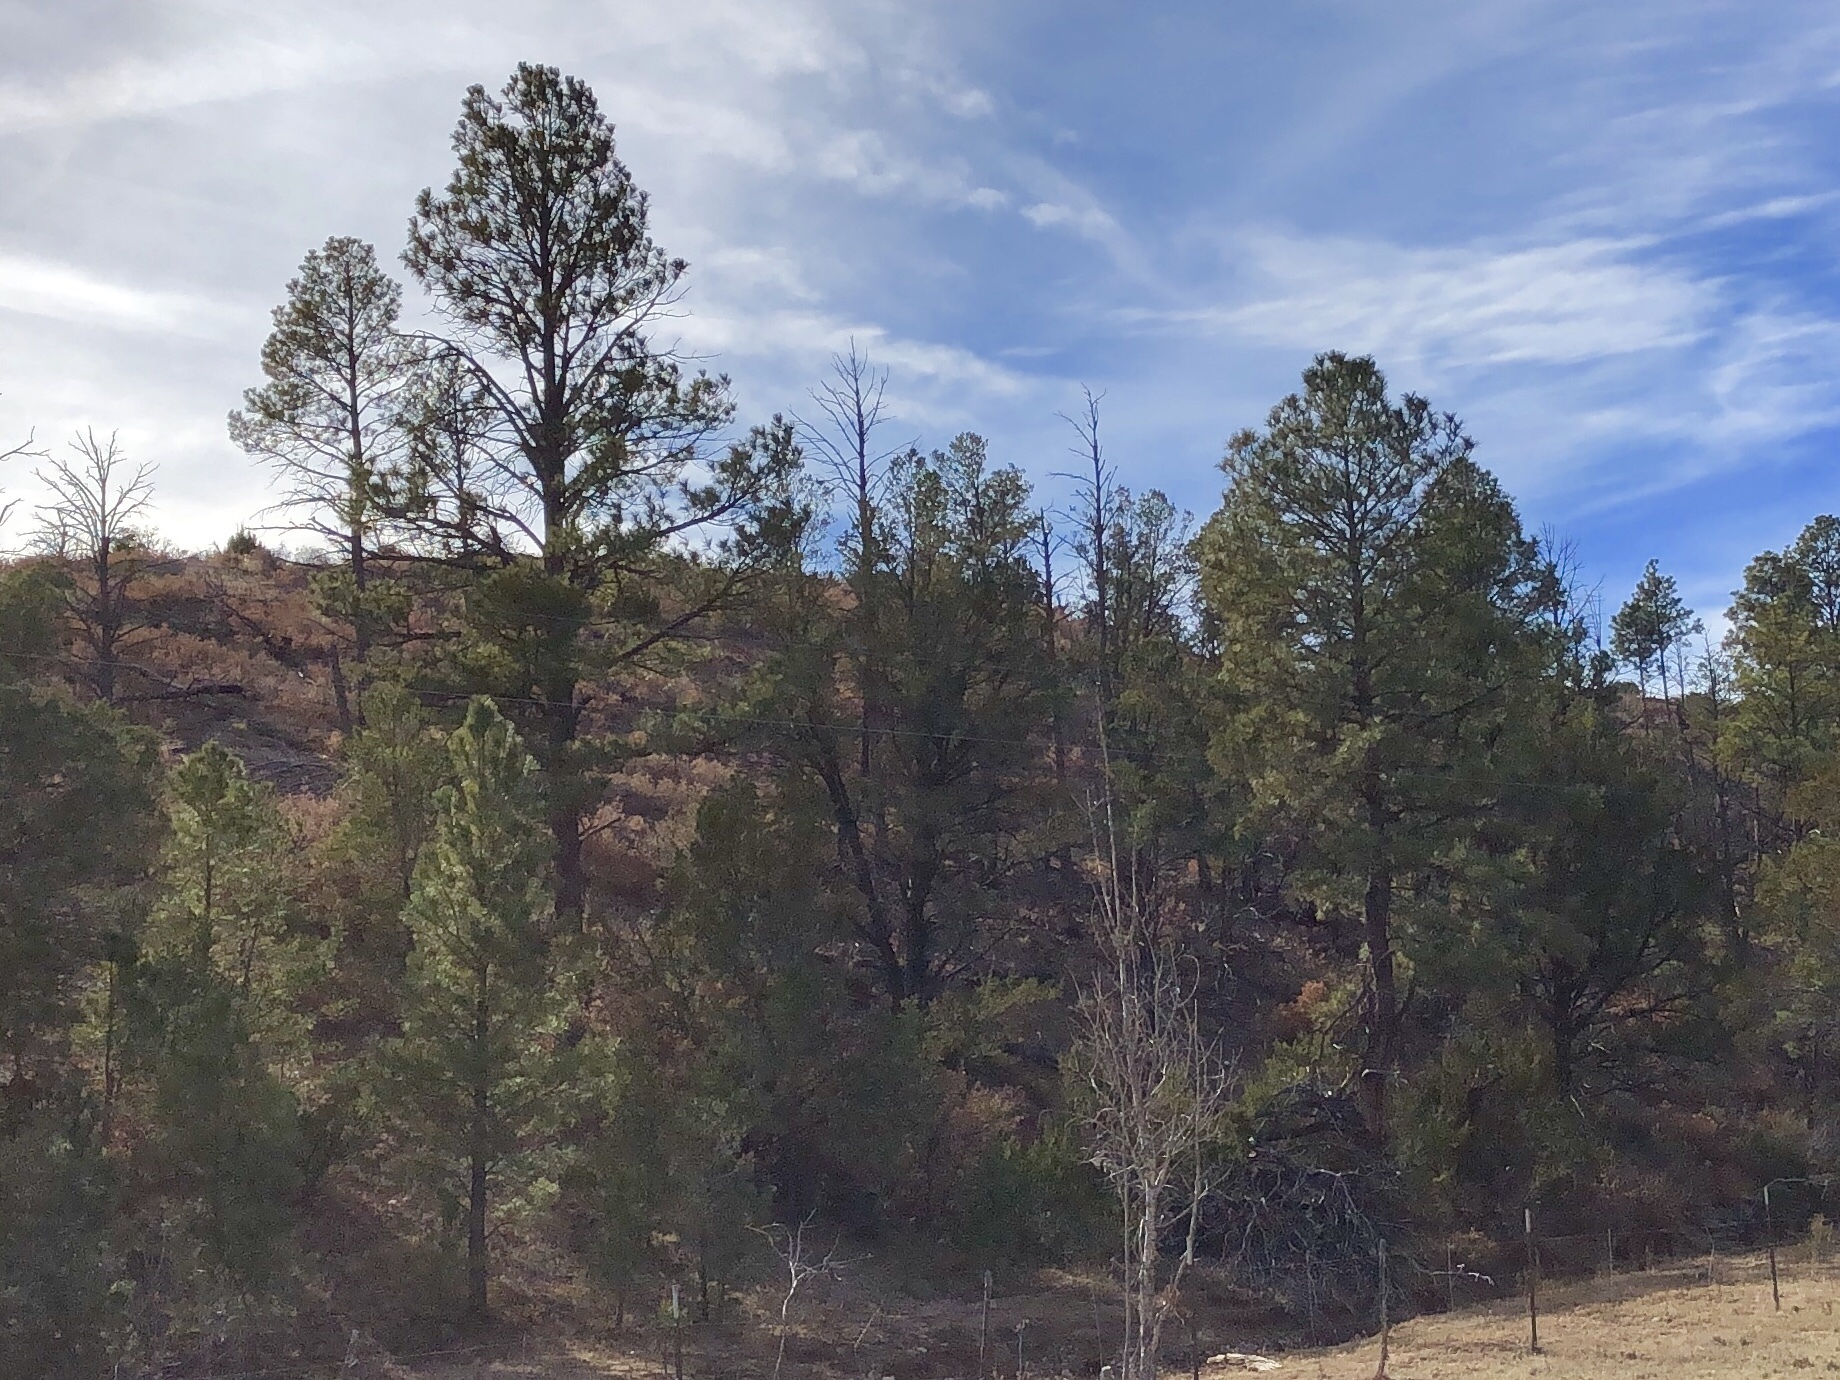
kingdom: Plantae
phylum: Tracheophyta
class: Pinopsida
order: Pinales
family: Pinaceae
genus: Pinus
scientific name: Pinus ponderosa
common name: Western yellow-pine
